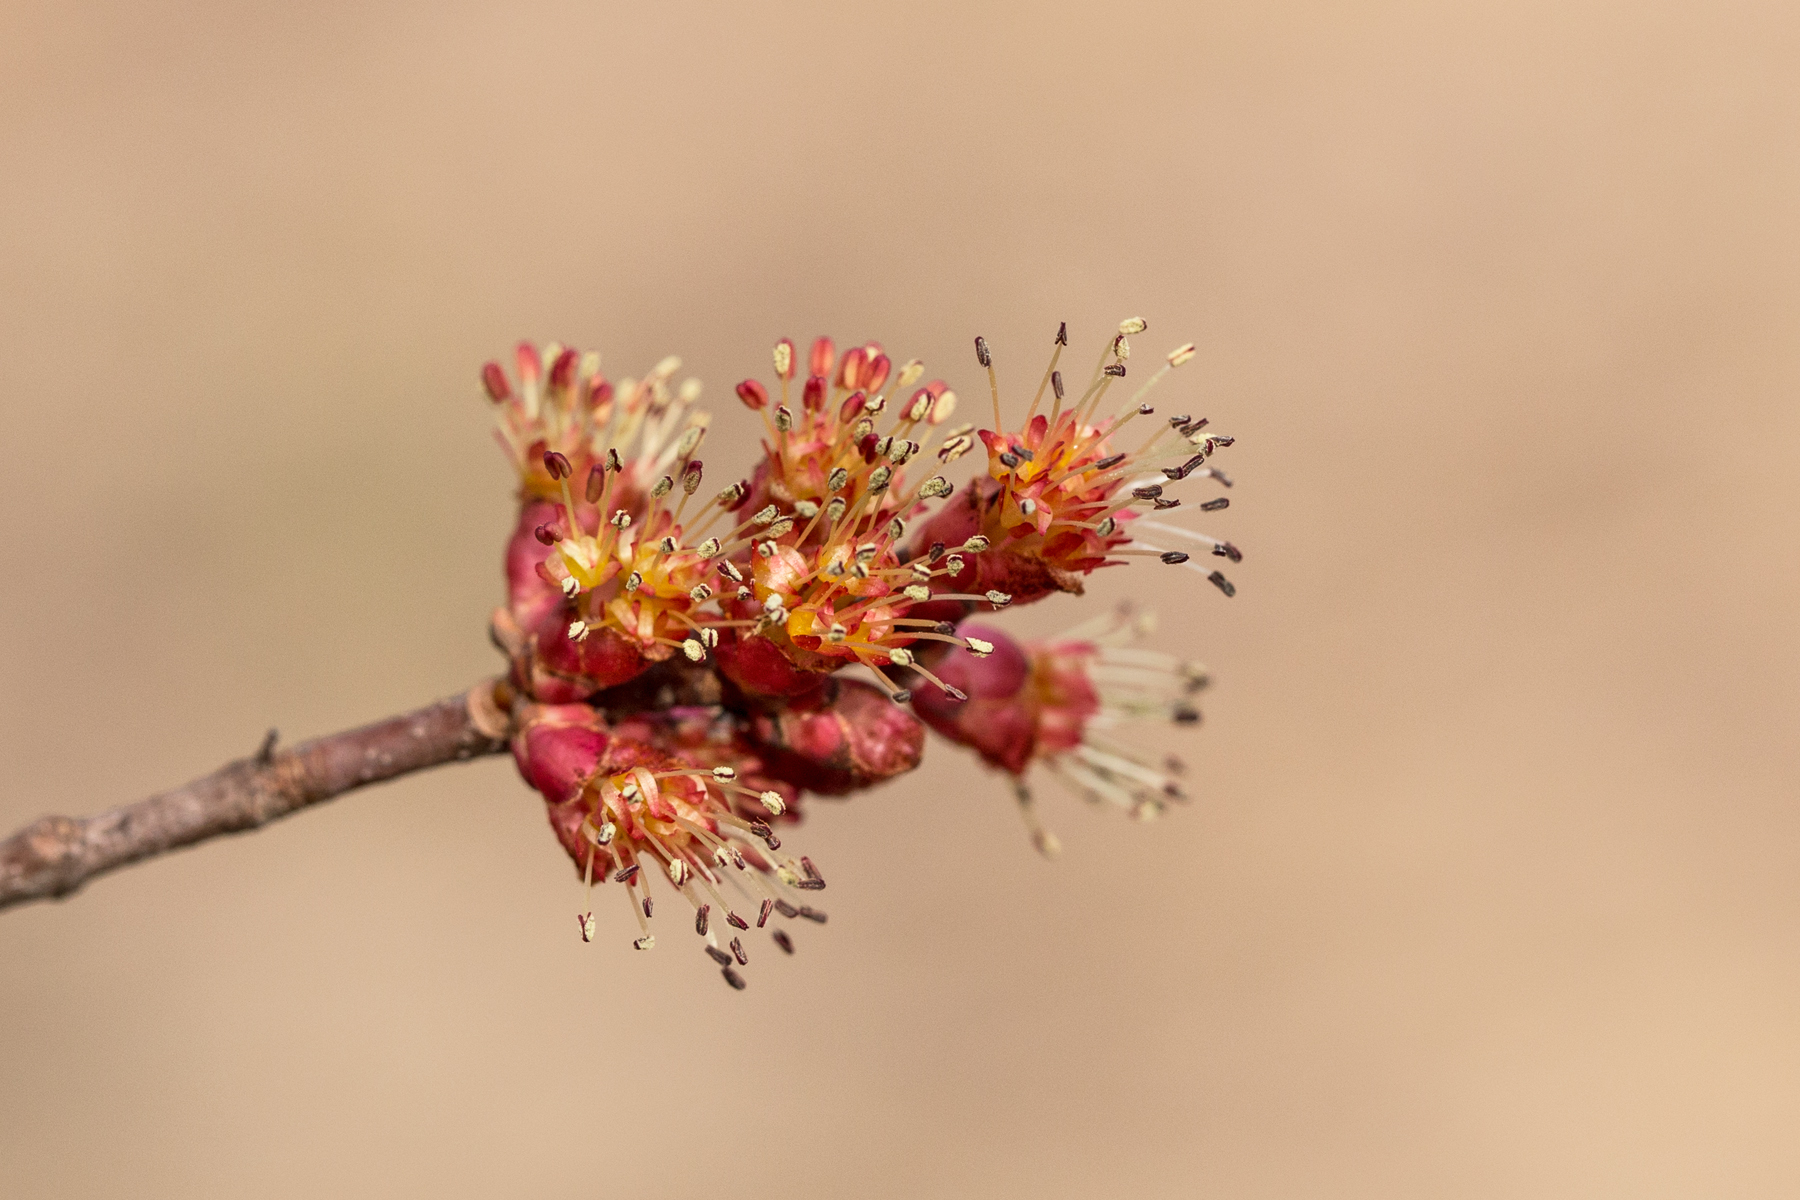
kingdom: Plantae
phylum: Tracheophyta
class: Magnoliopsida
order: Sapindales
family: Sapindaceae
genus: Acer
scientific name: Acer rubrum
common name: Red maple
